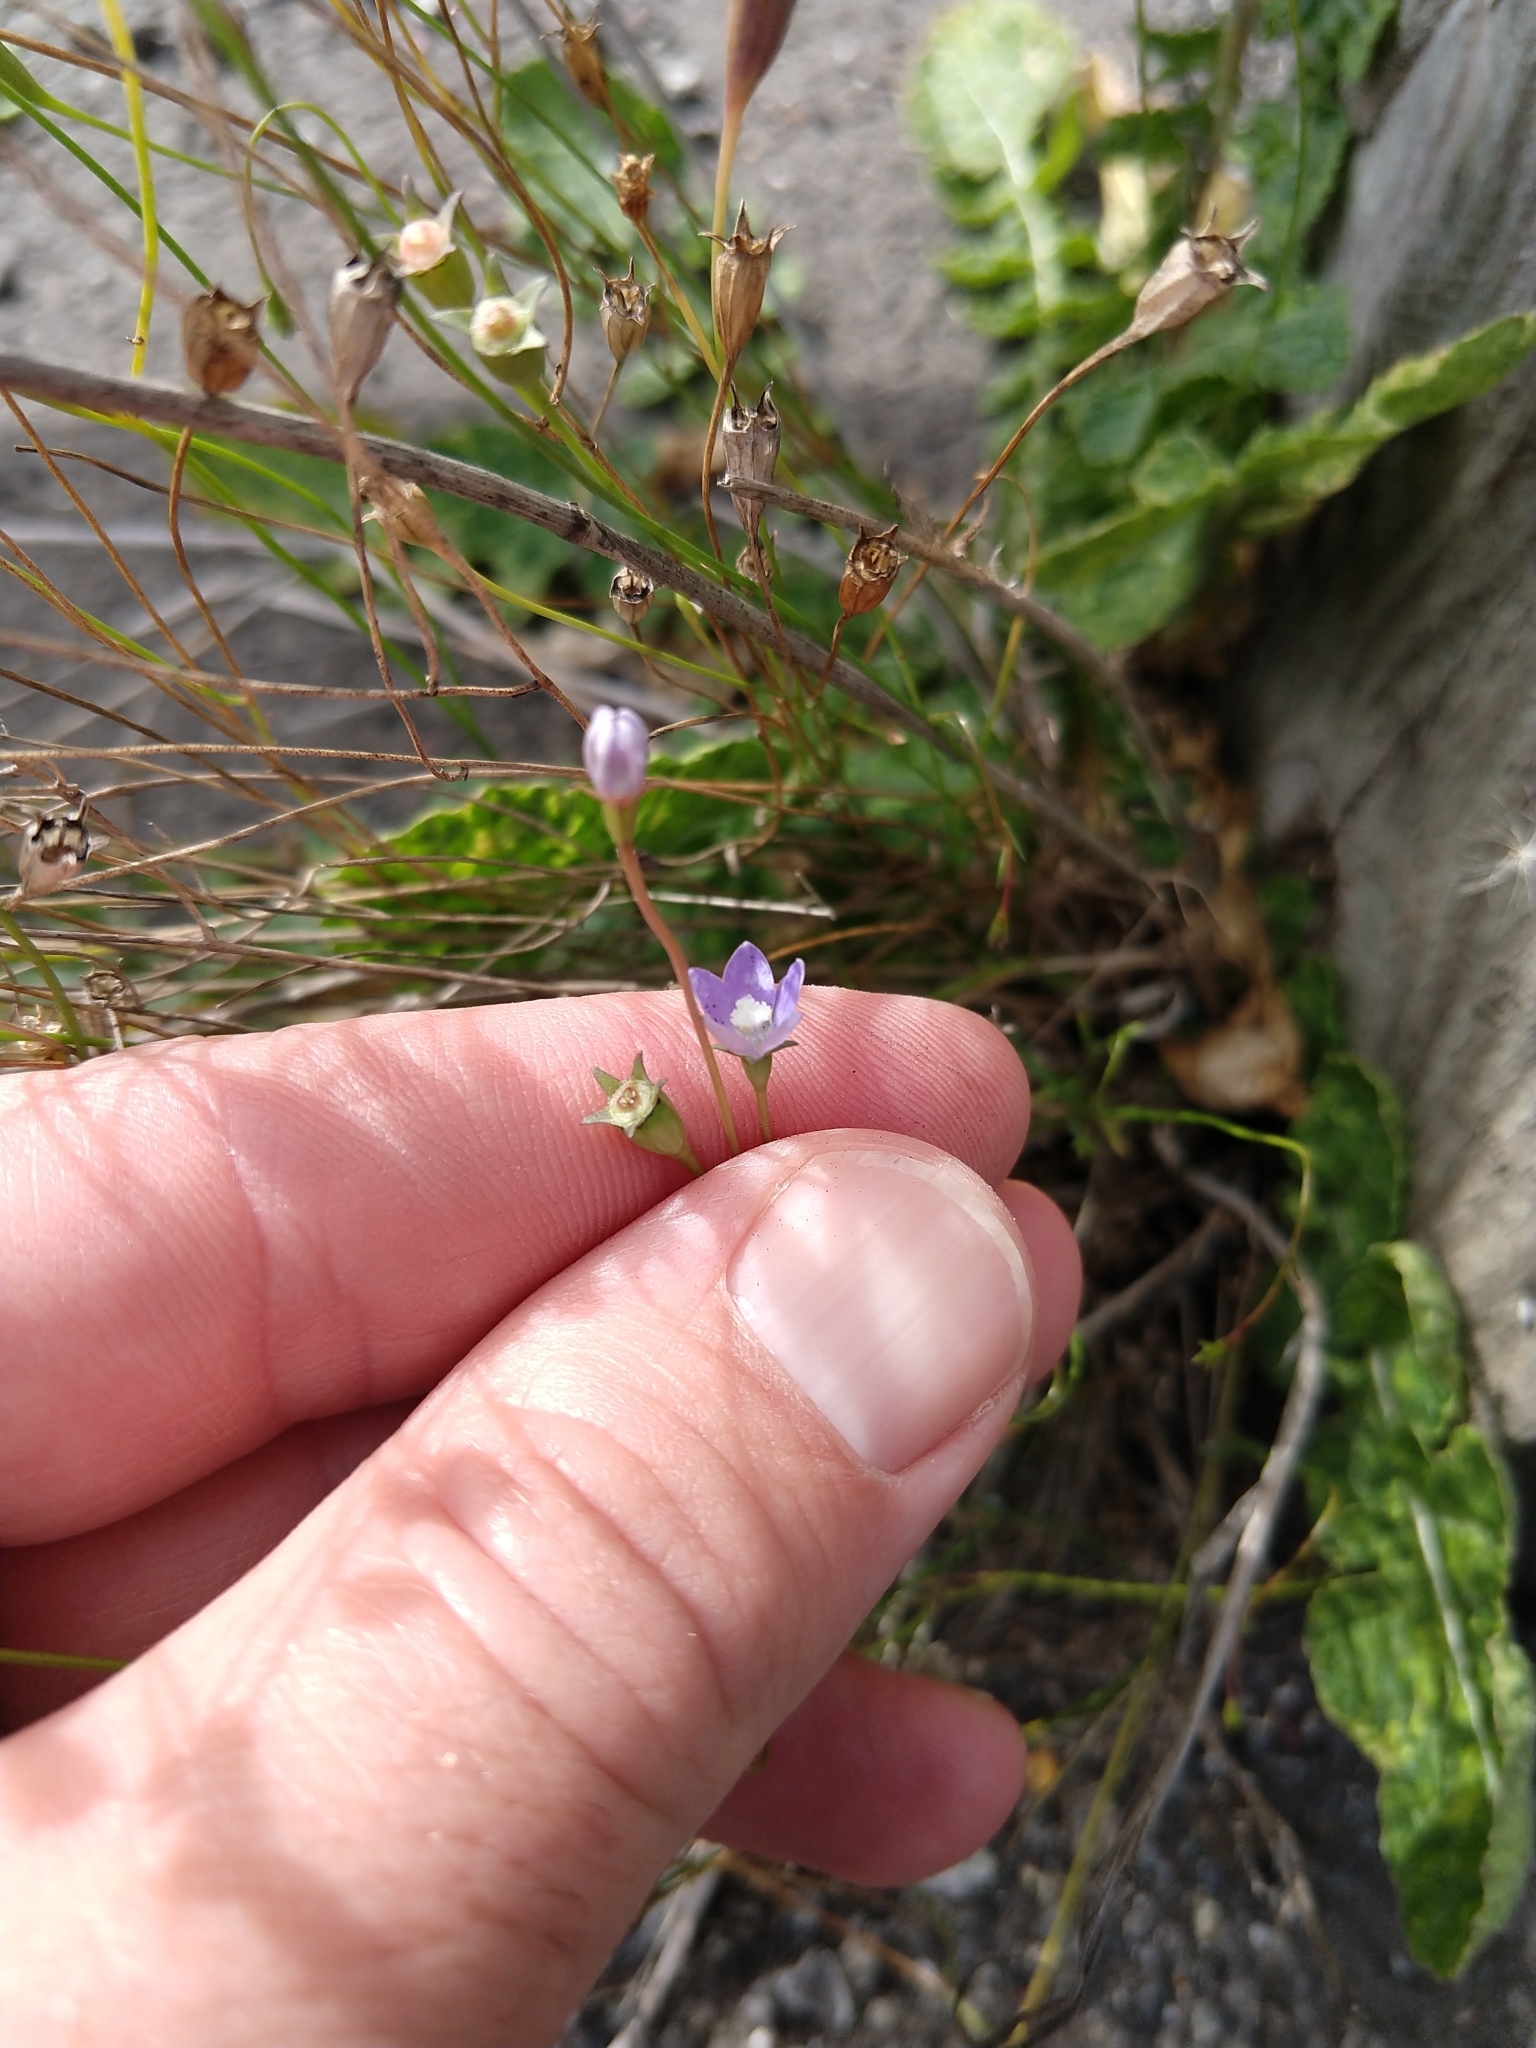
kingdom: Plantae
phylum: Tracheophyta
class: Magnoliopsida
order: Asterales
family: Campanulaceae
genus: Wahlenbergia
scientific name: Wahlenbergia marginata
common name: Southern rockbell
